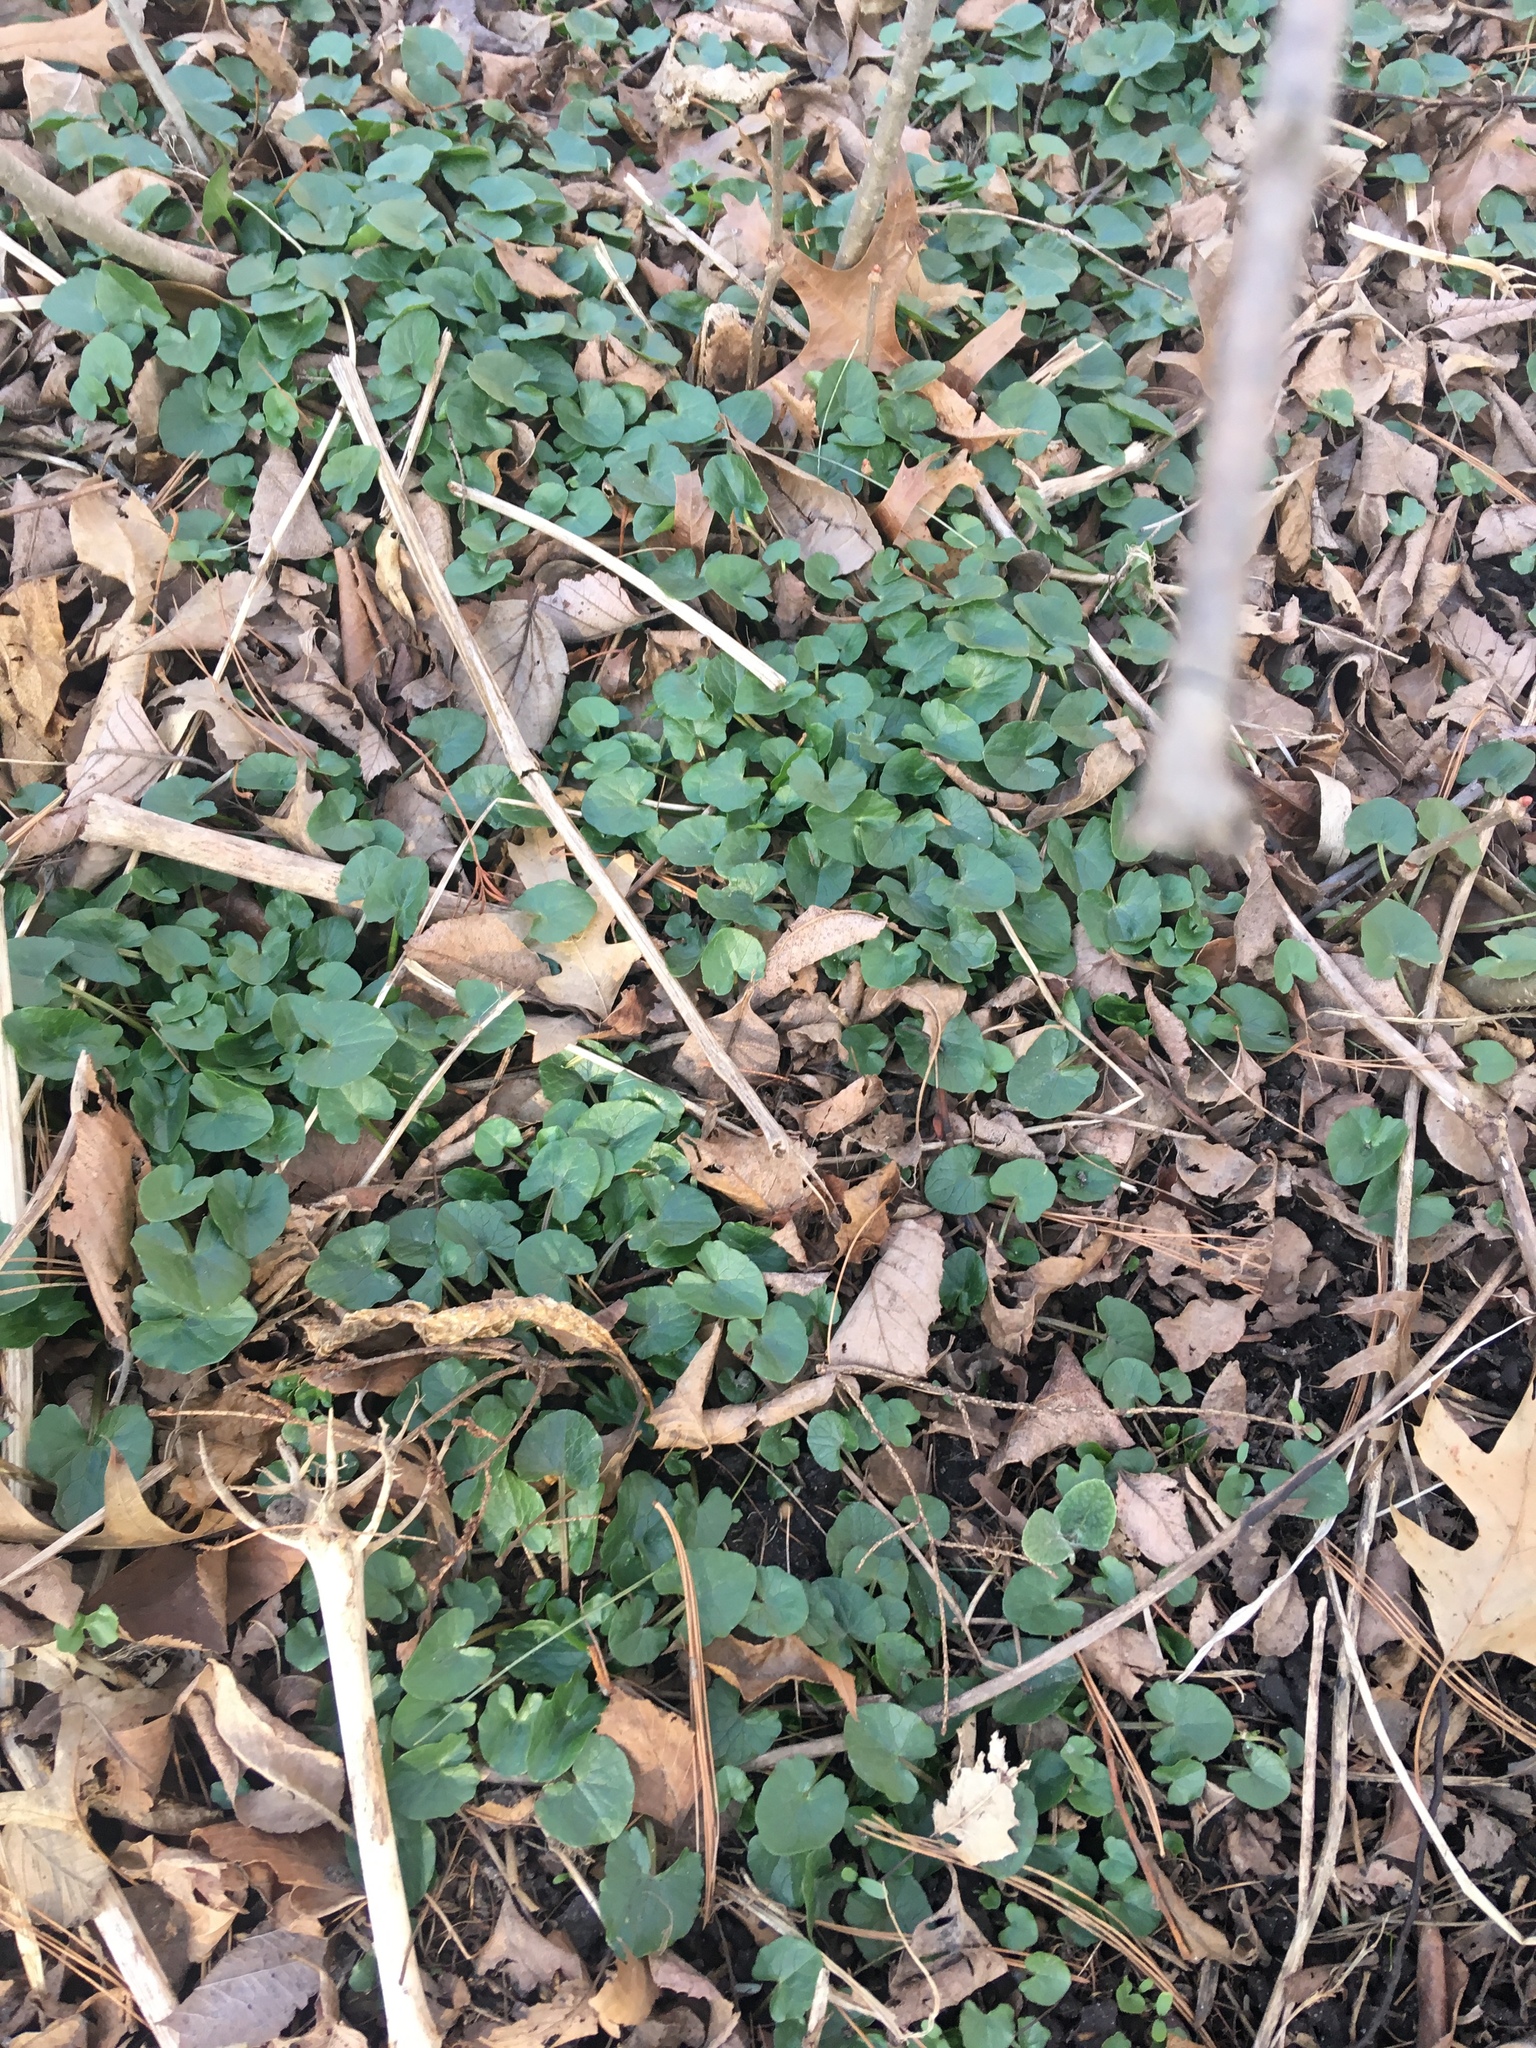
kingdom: Plantae
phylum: Tracheophyta
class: Magnoliopsida
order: Ranunculales
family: Ranunculaceae
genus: Ficaria
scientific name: Ficaria verna
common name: Lesser celandine
